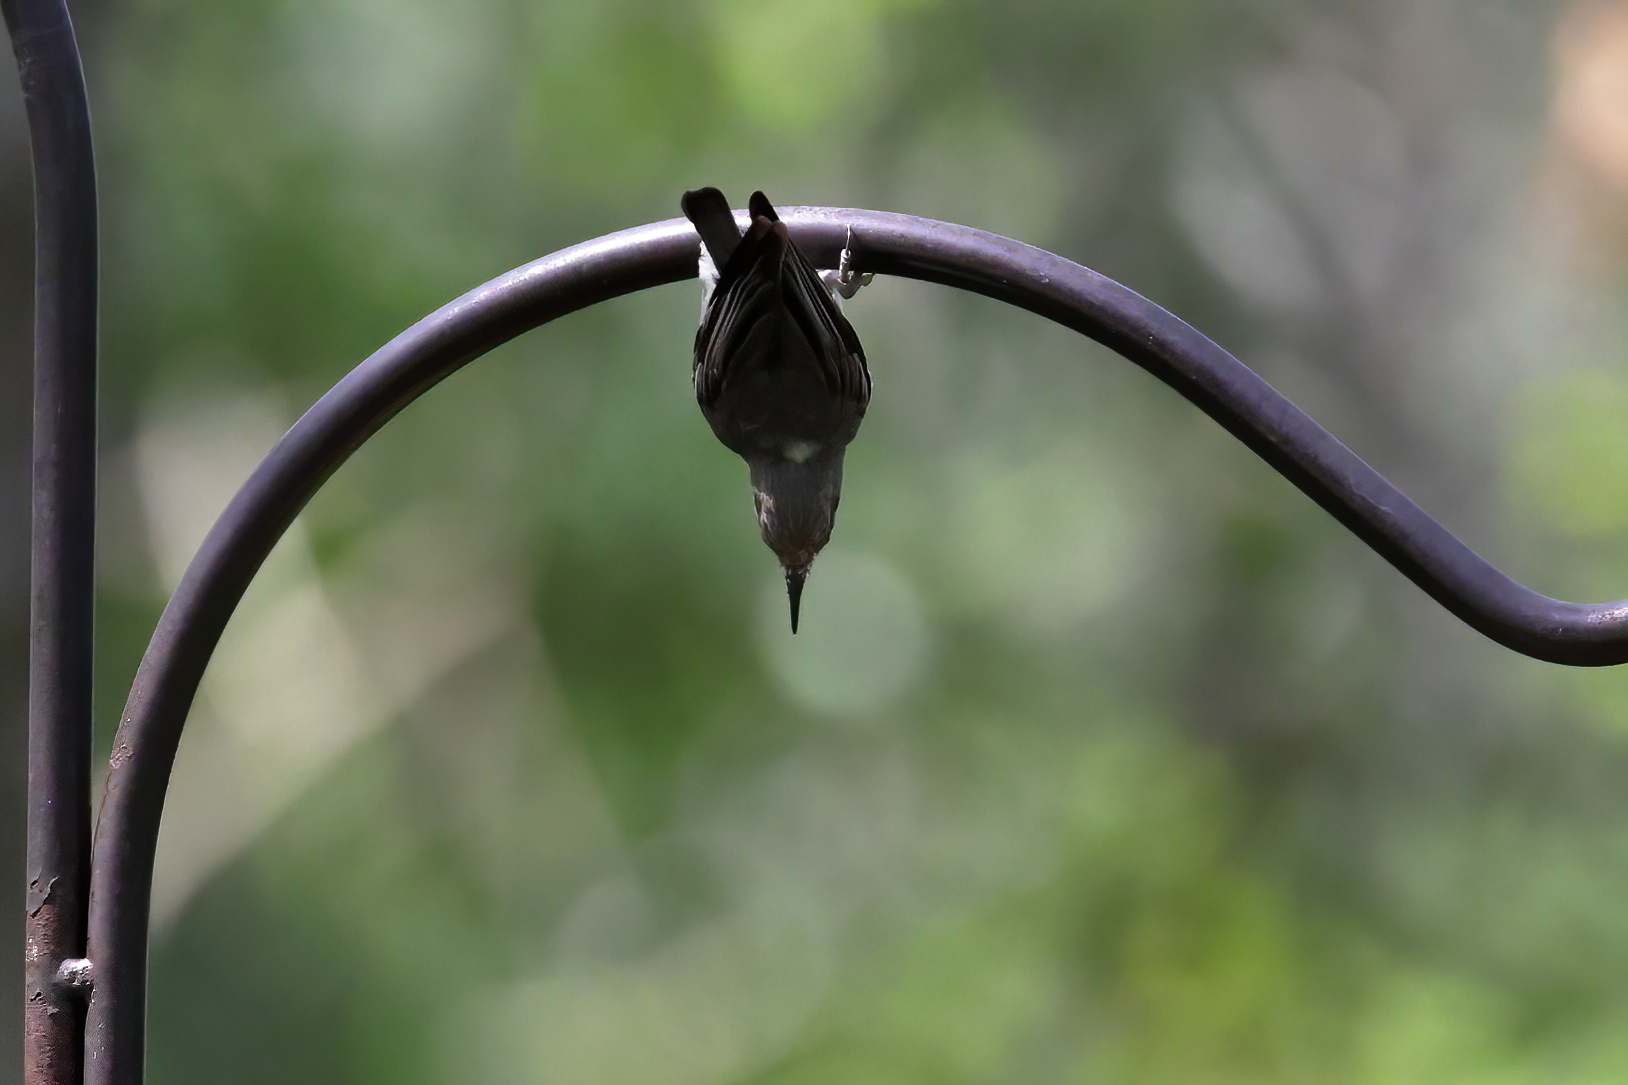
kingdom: Animalia
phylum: Chordata
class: Aves
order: Passeriformes
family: Sittidae
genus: Sitta
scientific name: Sitta pusilla
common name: Brown-headed nuthatch
